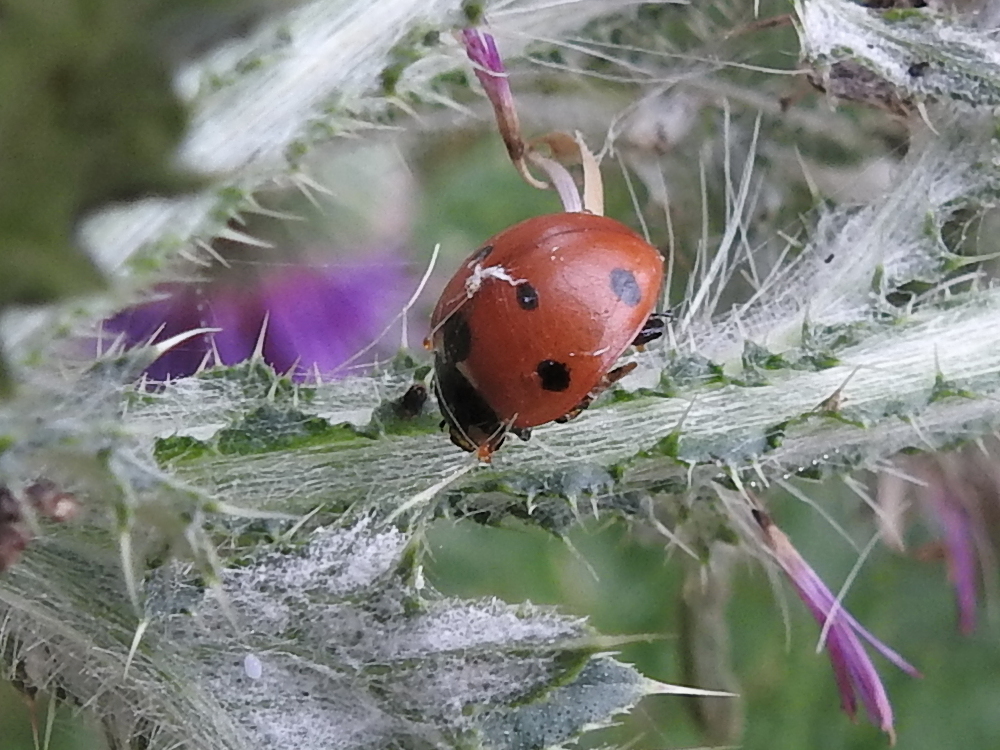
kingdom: Animalia
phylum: Arthropoda
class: Insecta
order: Coleoptera
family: Coccinellidae
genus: Coccinella
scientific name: Coccinella septempunctata
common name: Sevenspotted lady beetle
